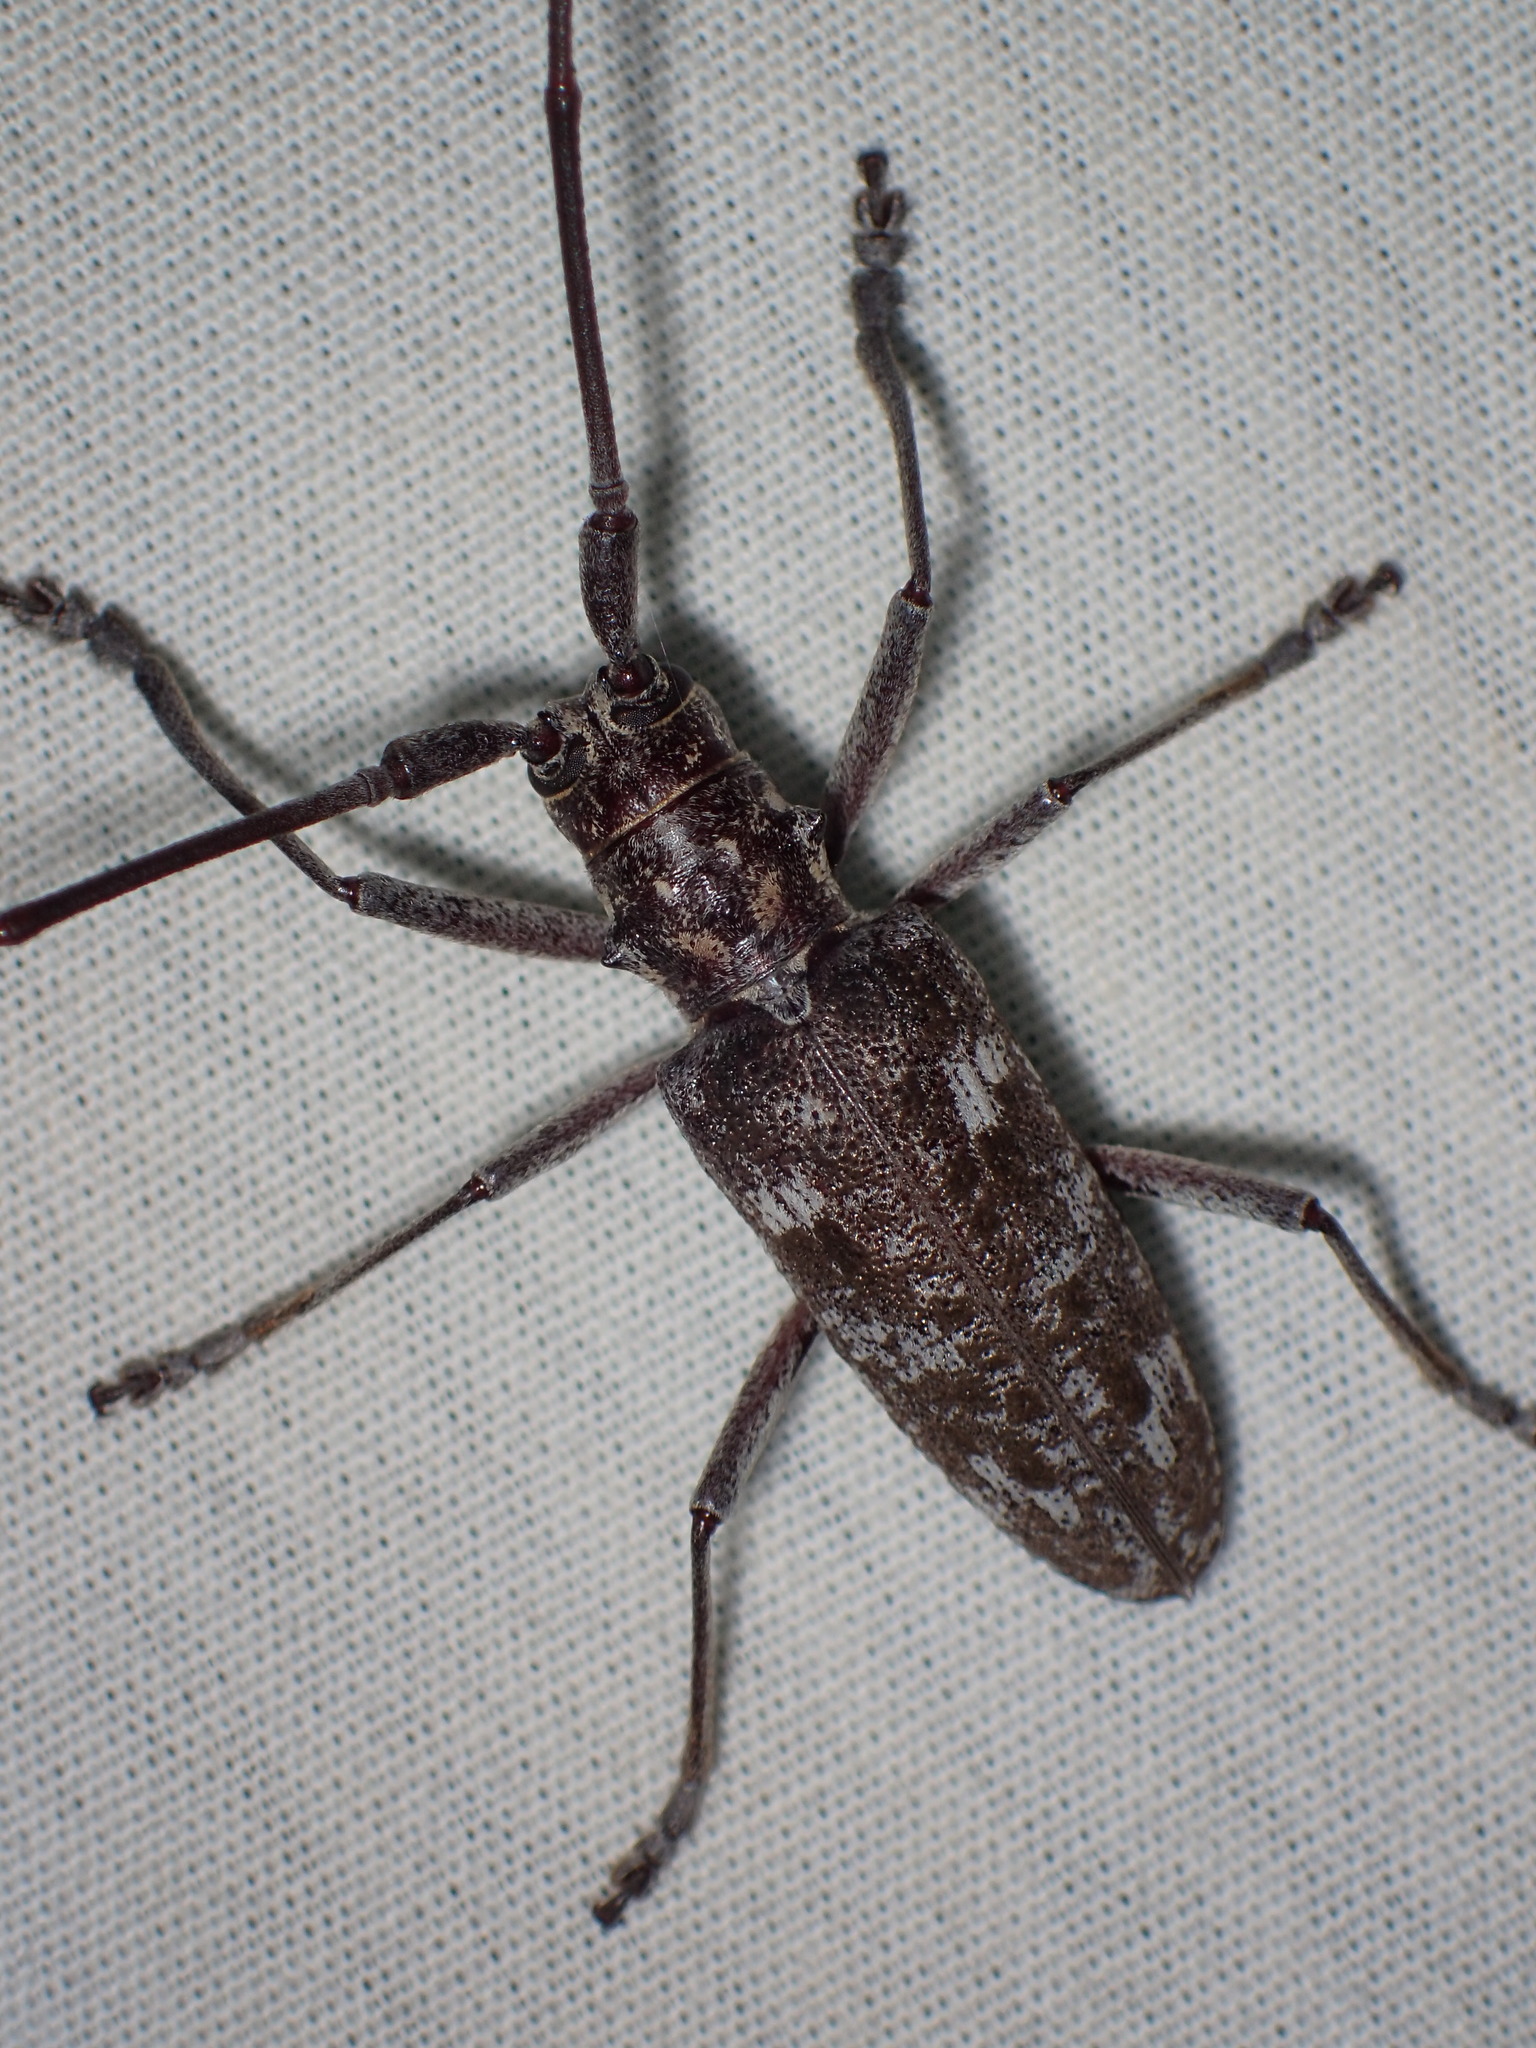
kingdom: Animalia
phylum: Arthropoda
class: Insecta
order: Coleoptera
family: Cerambycidae
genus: Monochamus
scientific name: Monochamus titillator
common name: Southern pine sawyer
